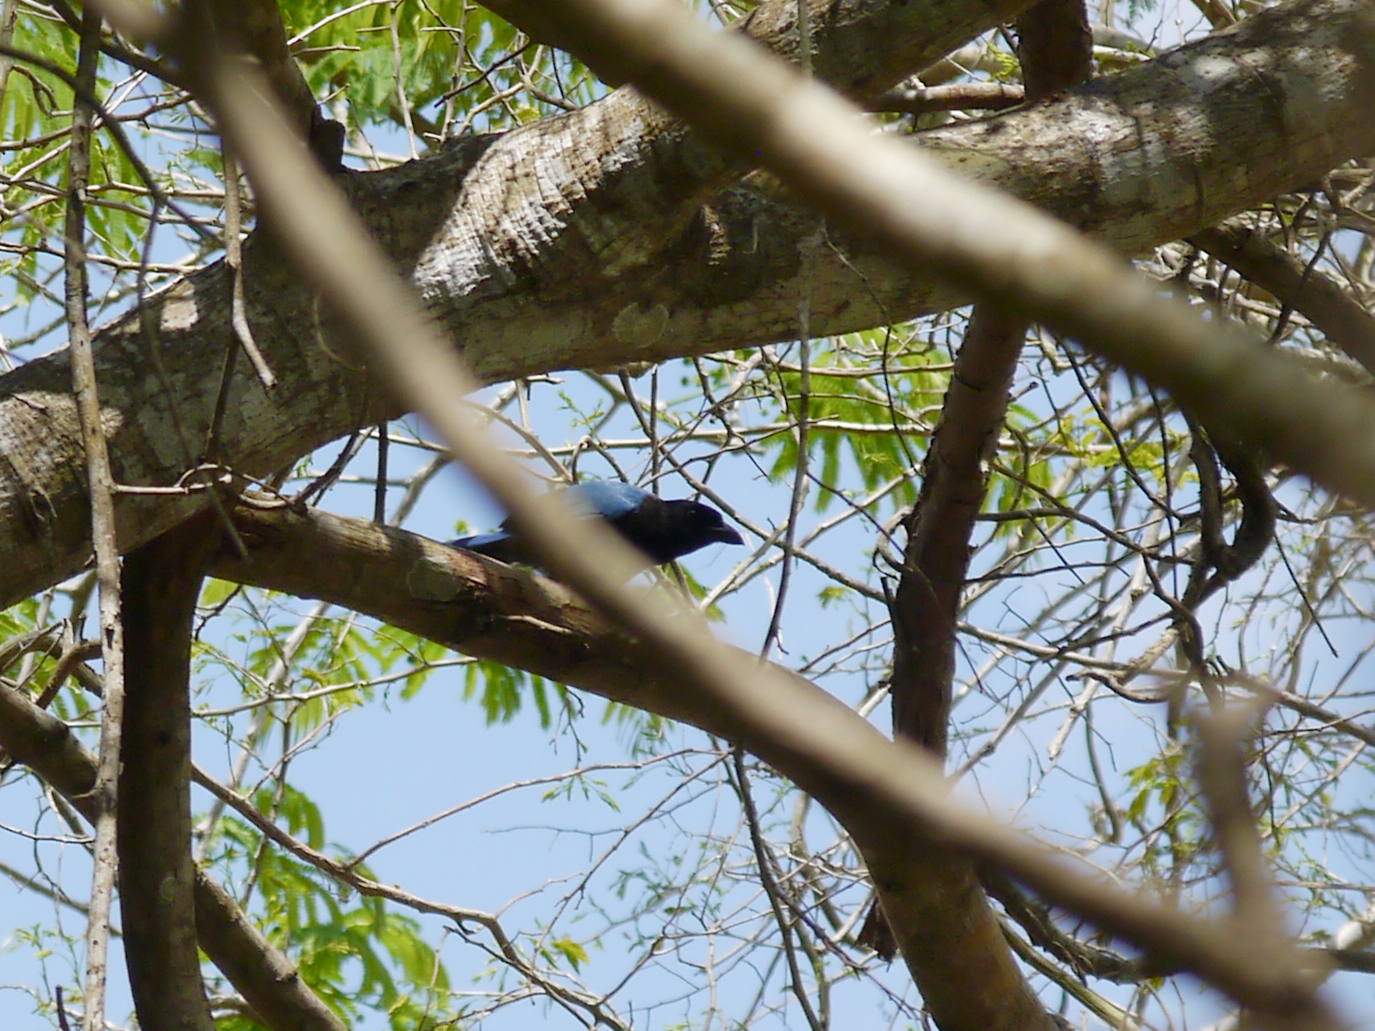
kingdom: Animalia
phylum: Chordata
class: Aves
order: Passeriformes
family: Corvidae
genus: Cyanocorax
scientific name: Cyanocorax yucatanicus
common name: Yucatan jay
